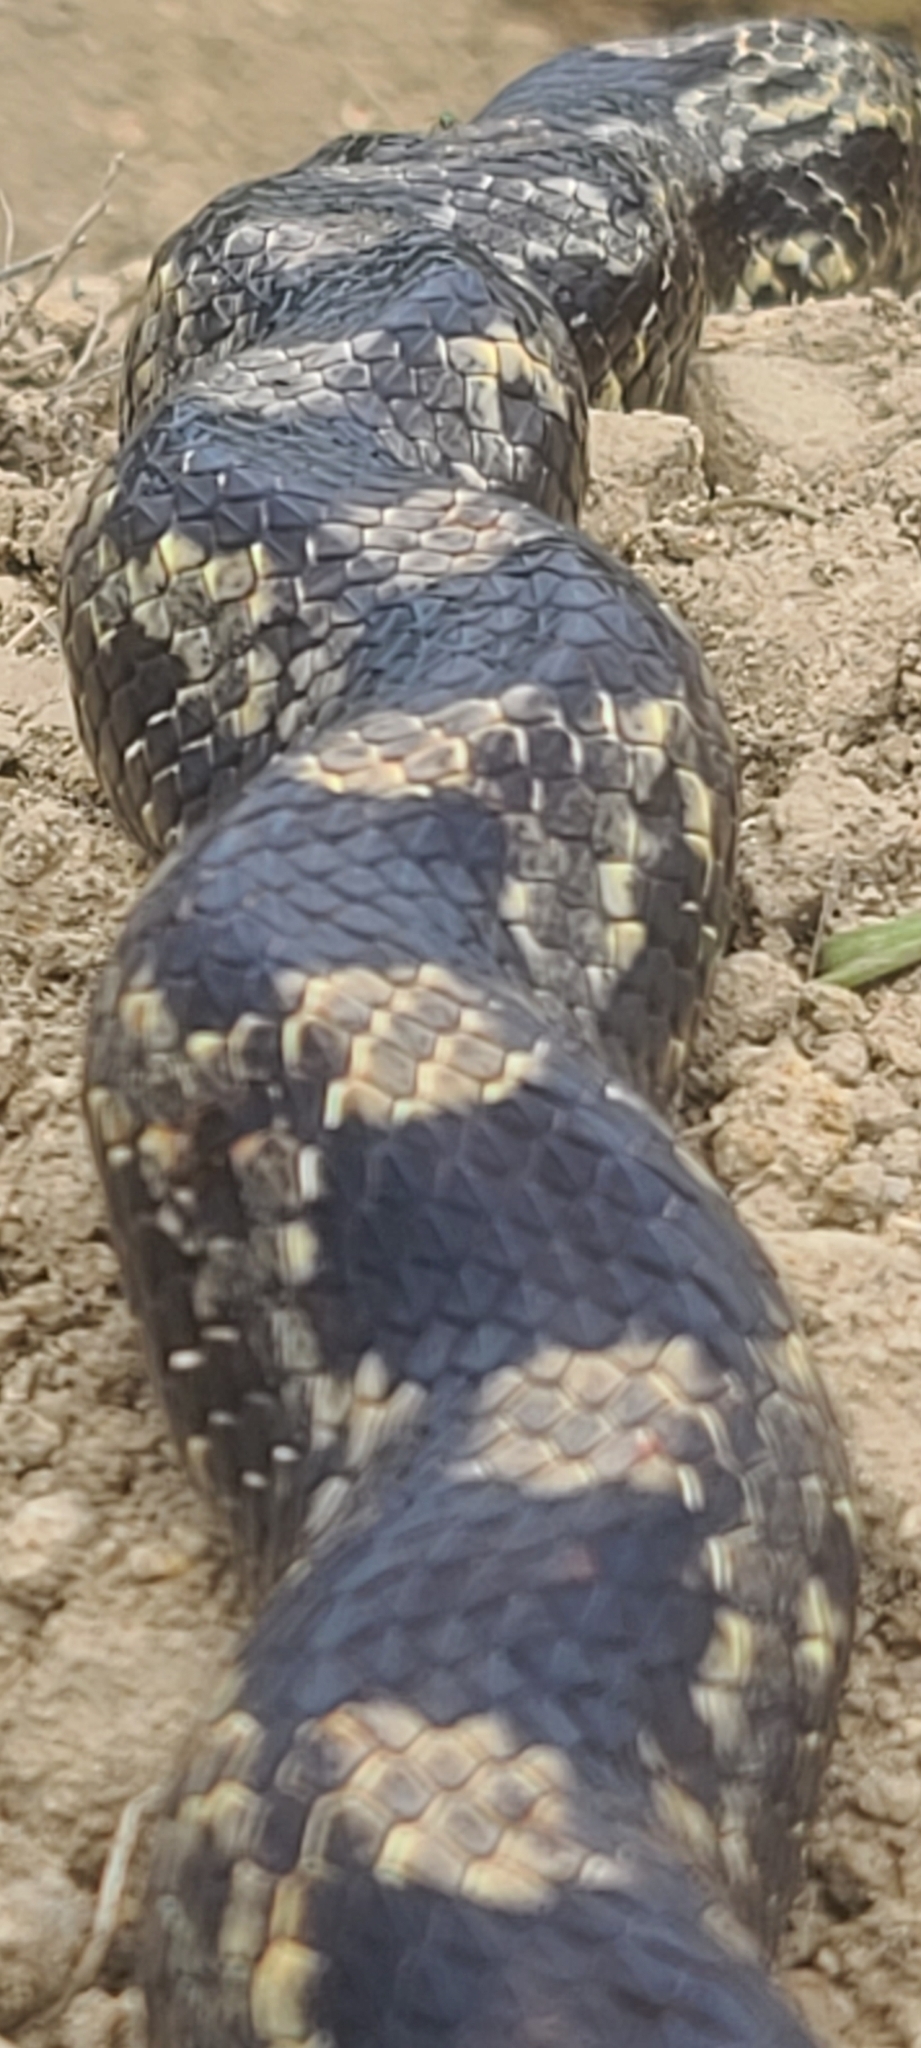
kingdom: Animalia
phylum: Chordata
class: Squamata
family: Colubridae
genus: Pantherophis
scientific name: Pantherophis spiloides
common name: Gray rat snake
